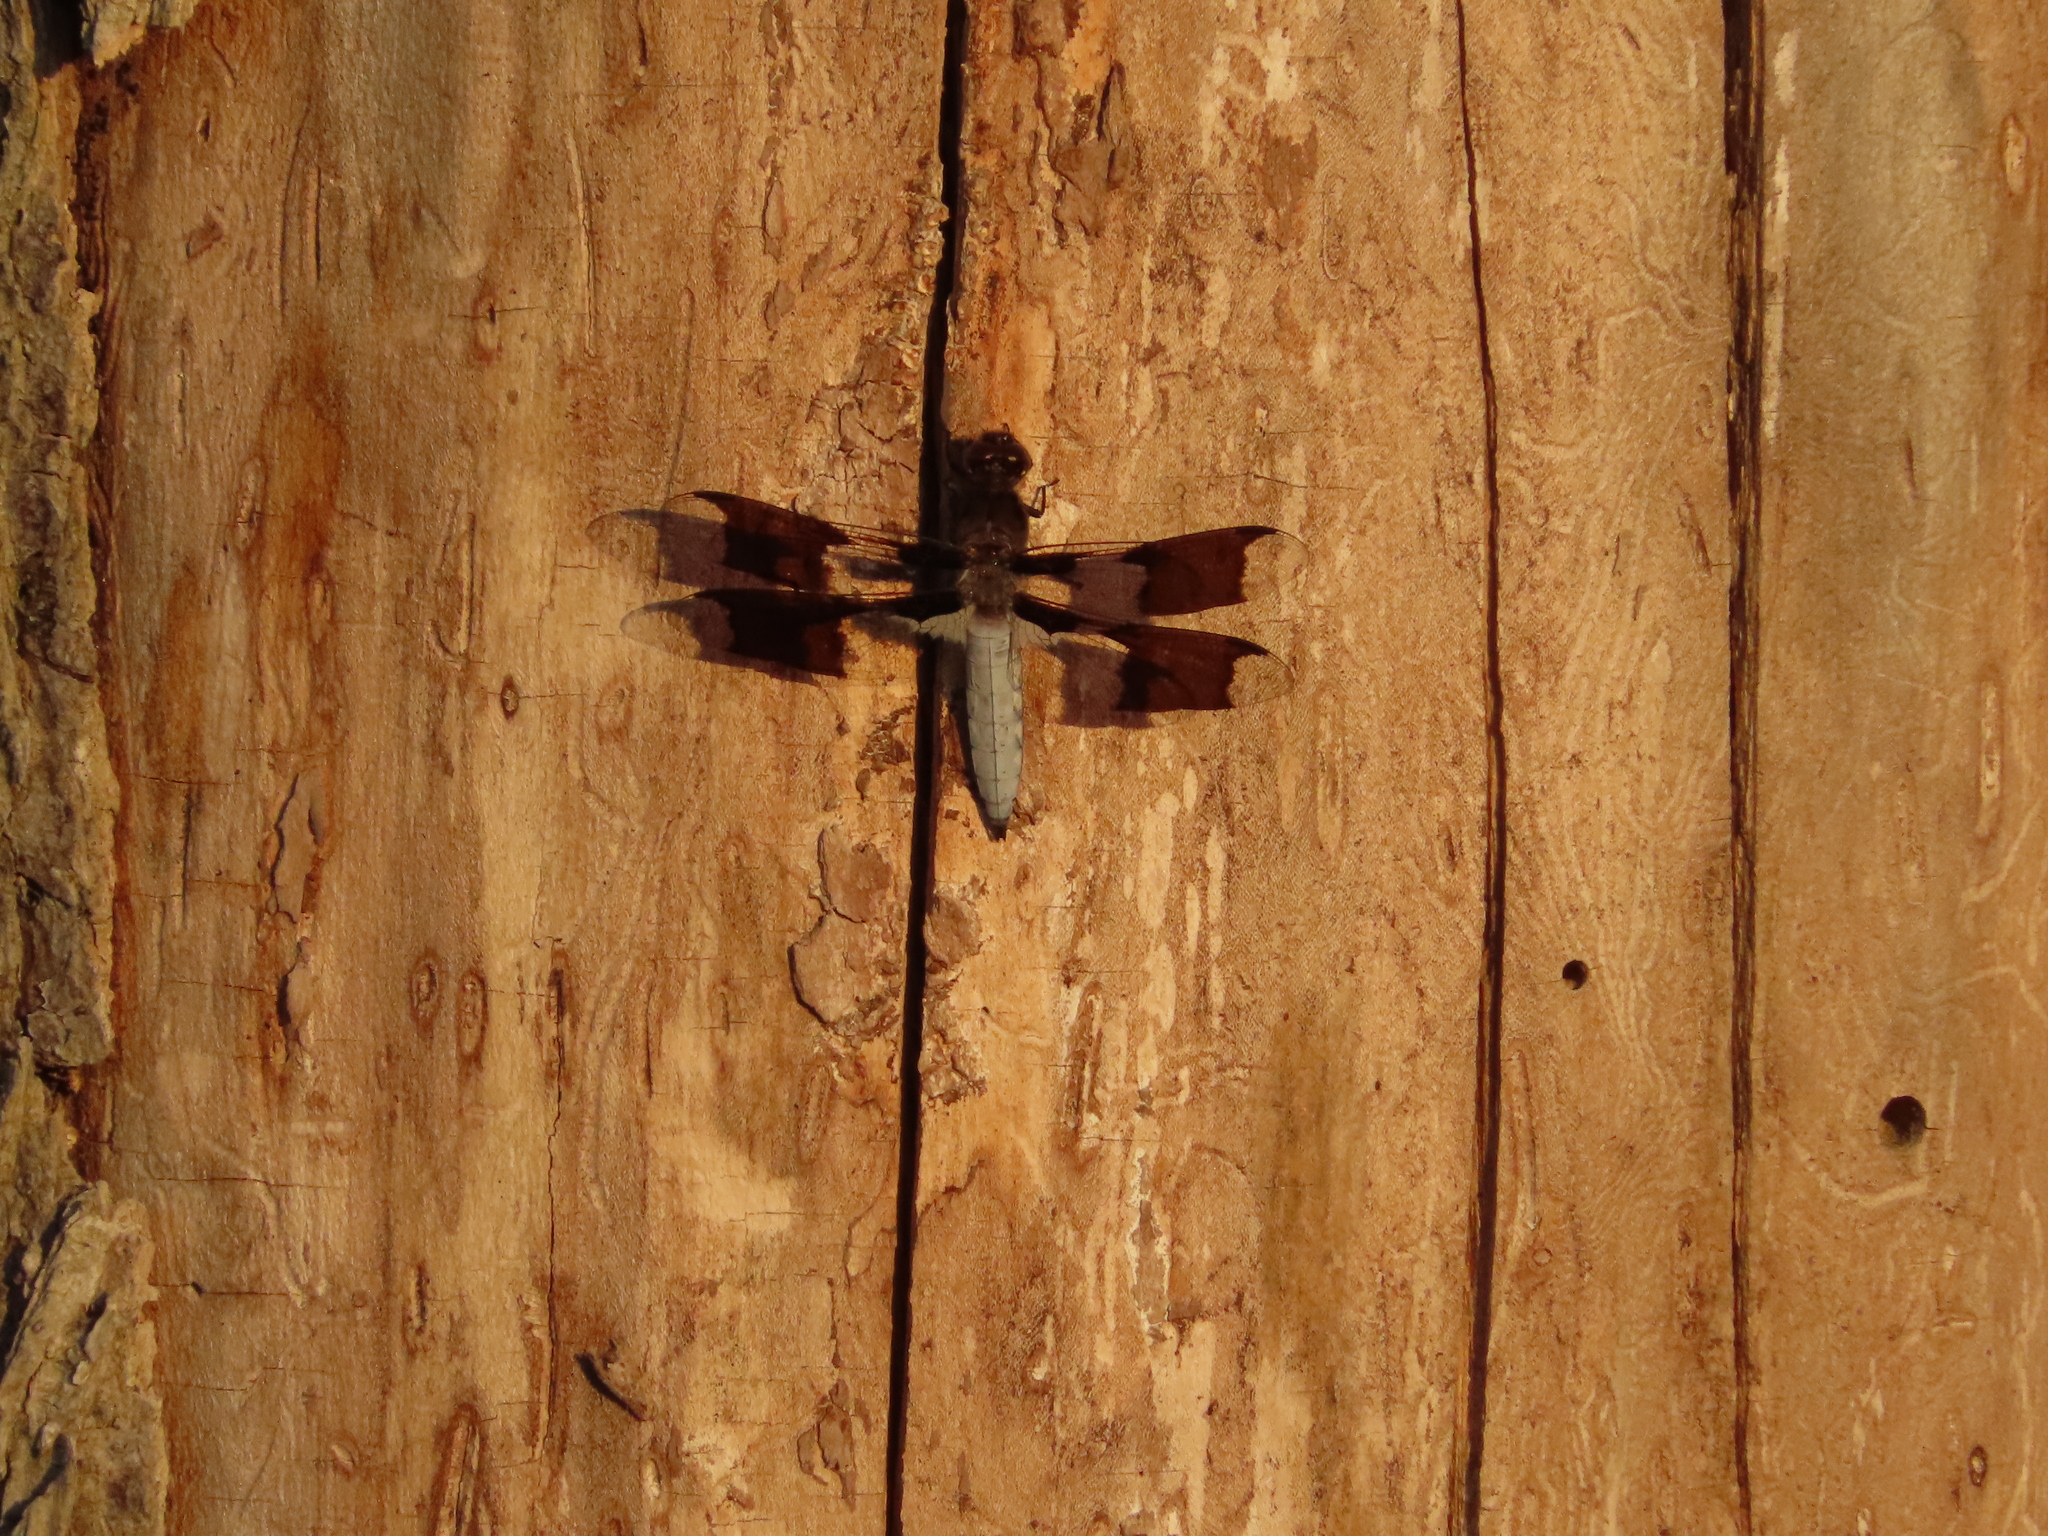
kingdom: Animalia
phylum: Arthropoda
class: Insecta
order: Odonata
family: Libellulidae
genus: Plathemis
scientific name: Plathemis lydia
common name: Common whitetail
